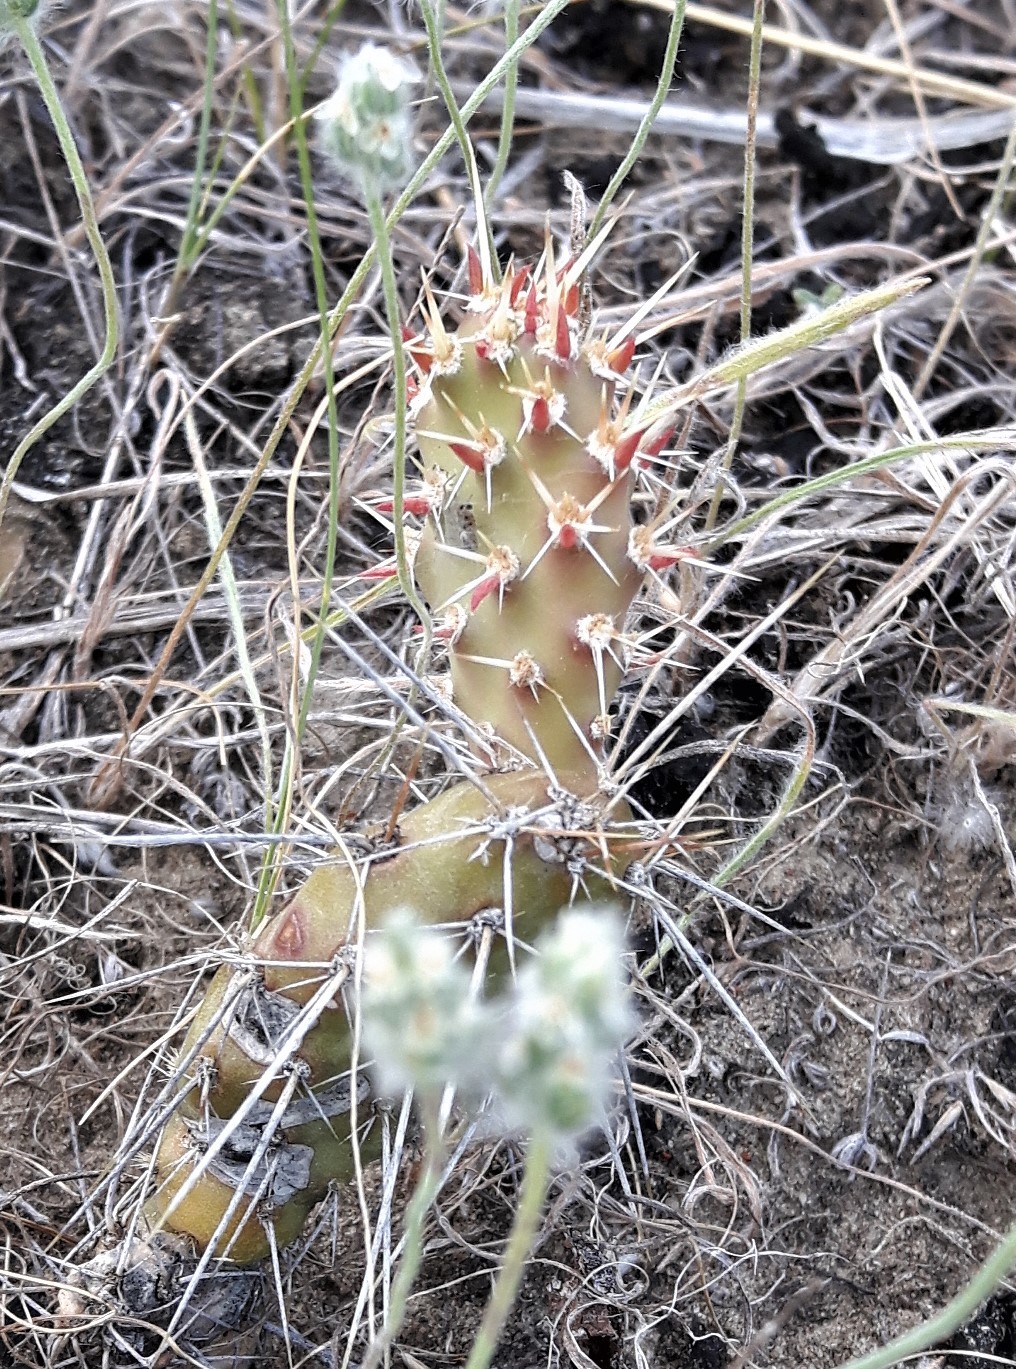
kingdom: Plantae
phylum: Tracheophyta
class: Magnoliopsida
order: Caryophyllales
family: Cactaceae
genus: Opuntia
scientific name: Opuntia fragilis
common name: Brittle cactus
